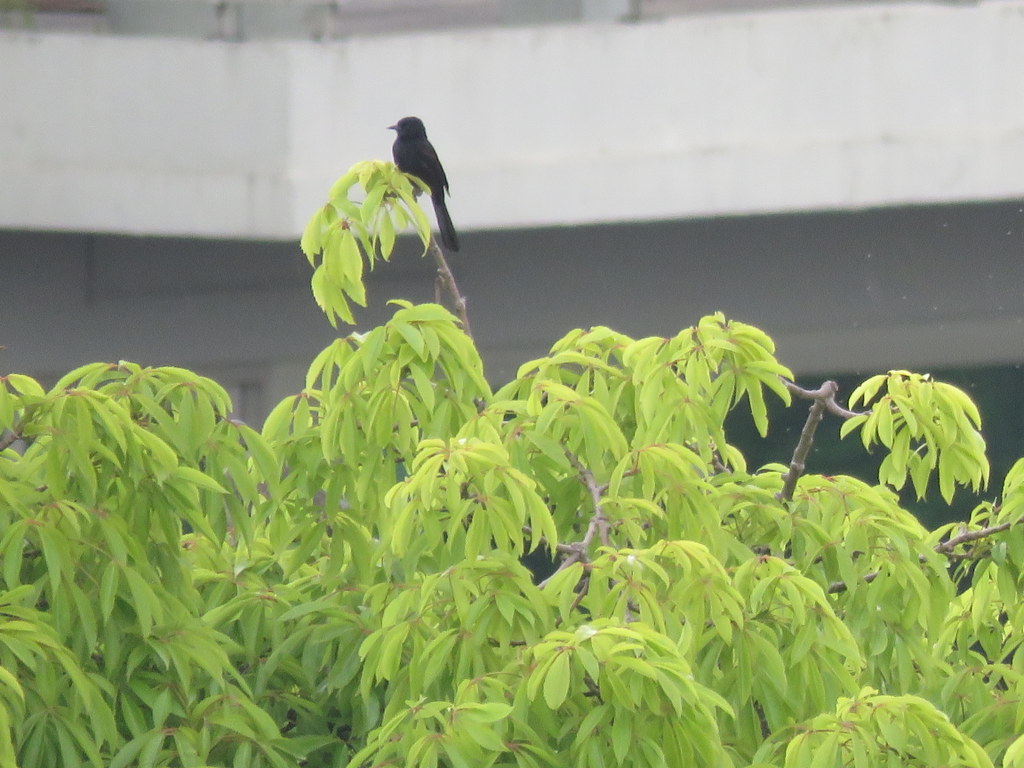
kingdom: Animalia
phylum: Chordata
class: Aves
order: Passeriformes
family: Icteridae
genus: Icterus
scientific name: Icterus cayanensis
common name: Epaulet oriole
